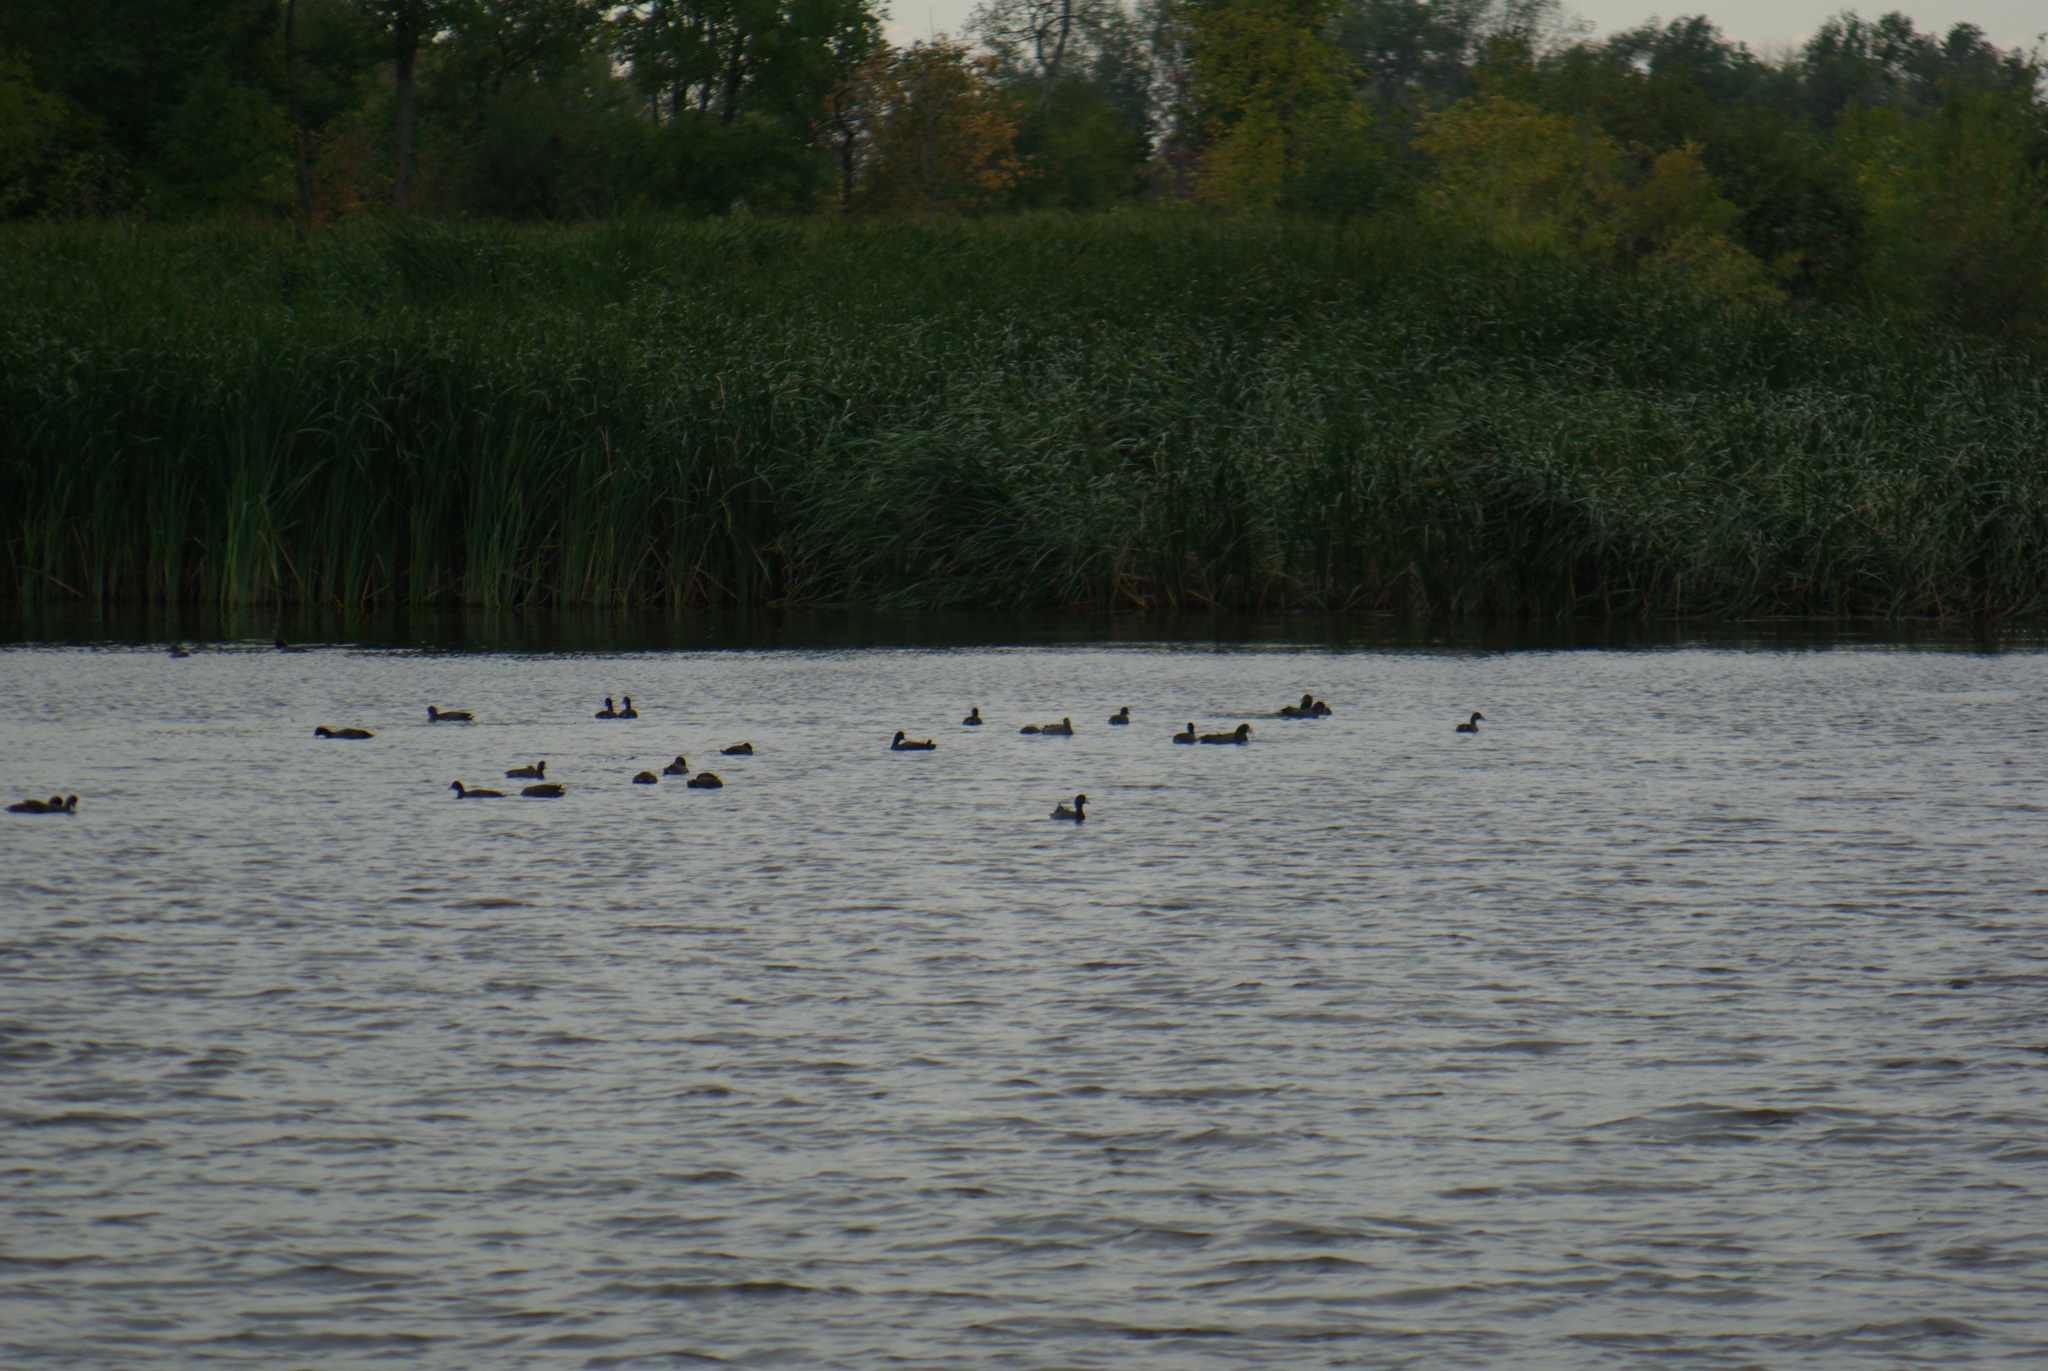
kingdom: Animalia
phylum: Chordata
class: Aves
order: Gruiformes
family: Rallidae
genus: Fulica
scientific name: Fulica americana
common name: American coot
